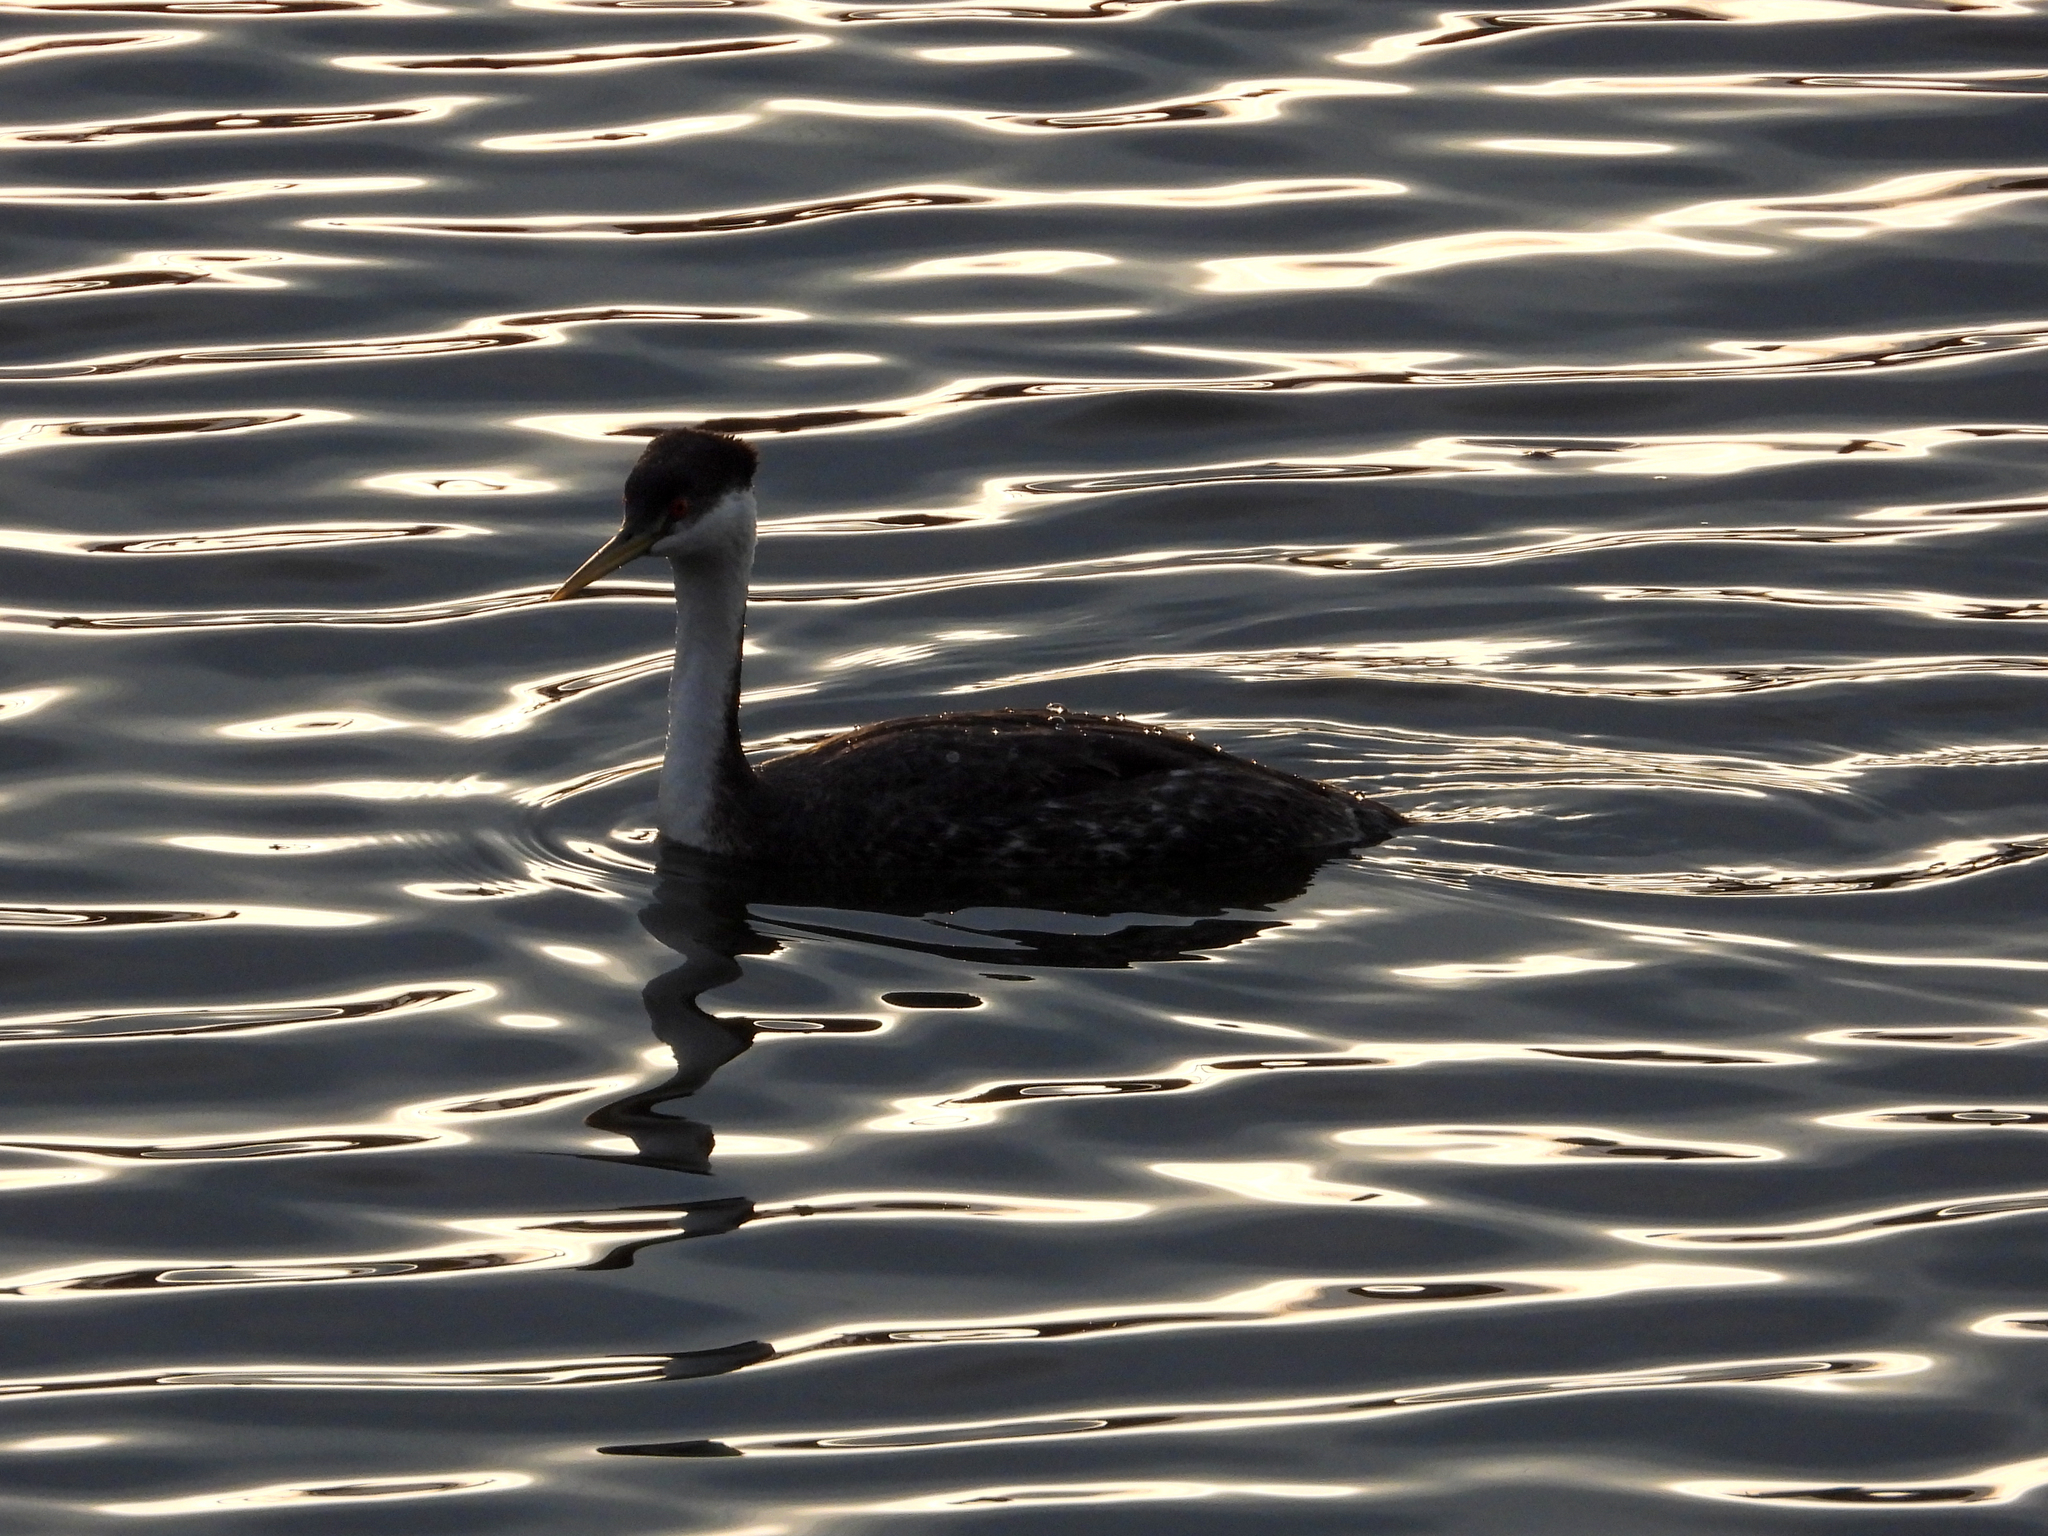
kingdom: Animalia
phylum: Chordata
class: Aves
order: Podicipediformes
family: Podicipedidae
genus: Aechmophorus
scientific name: Aechmophorus occidentalis
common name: Western grebe
